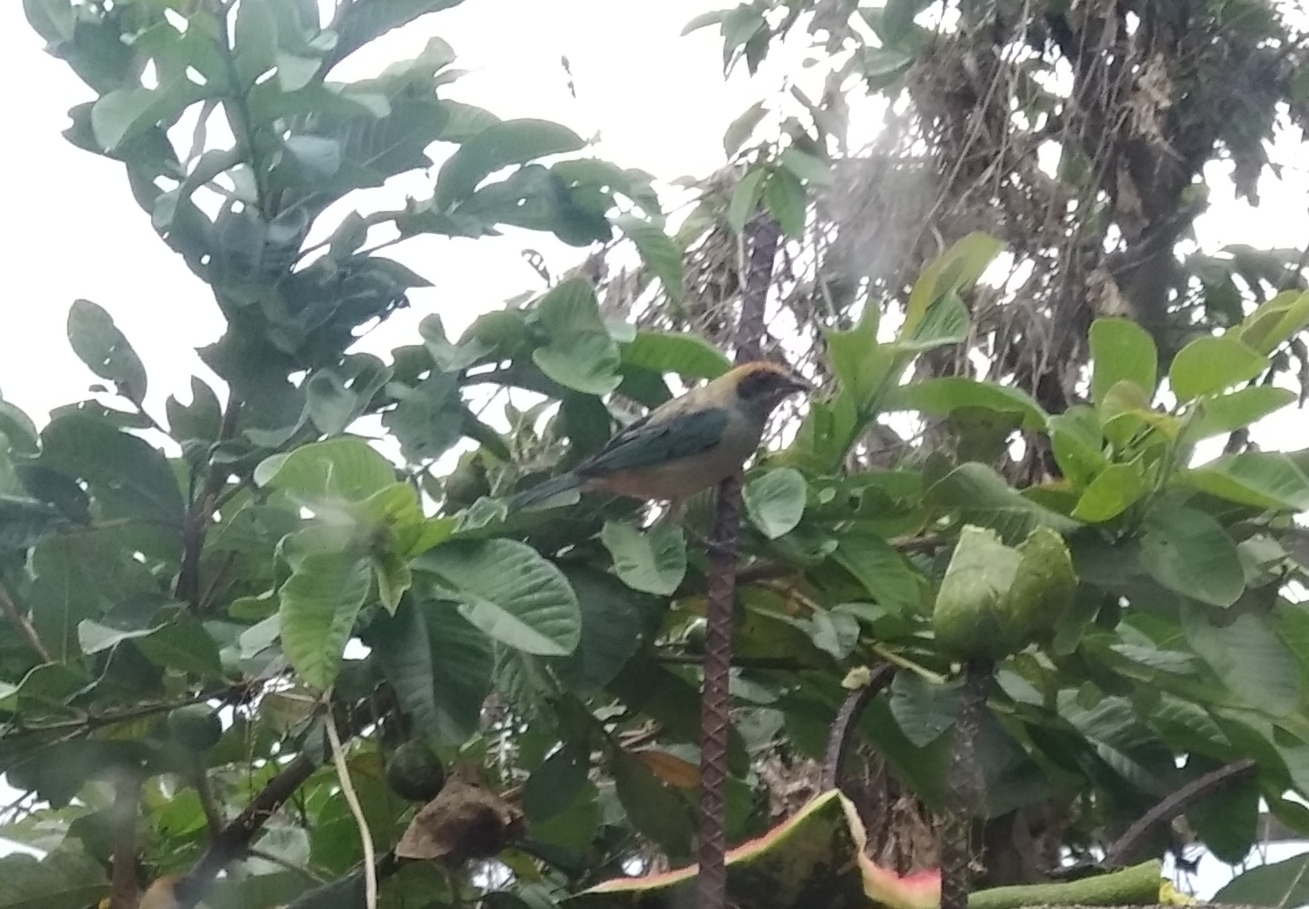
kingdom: Animalia
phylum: Chordata
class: Aves
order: Passeriformes
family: Thraupidae
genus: Stilpnia
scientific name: Stilpnia cayana
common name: Burnished-buff tanager
